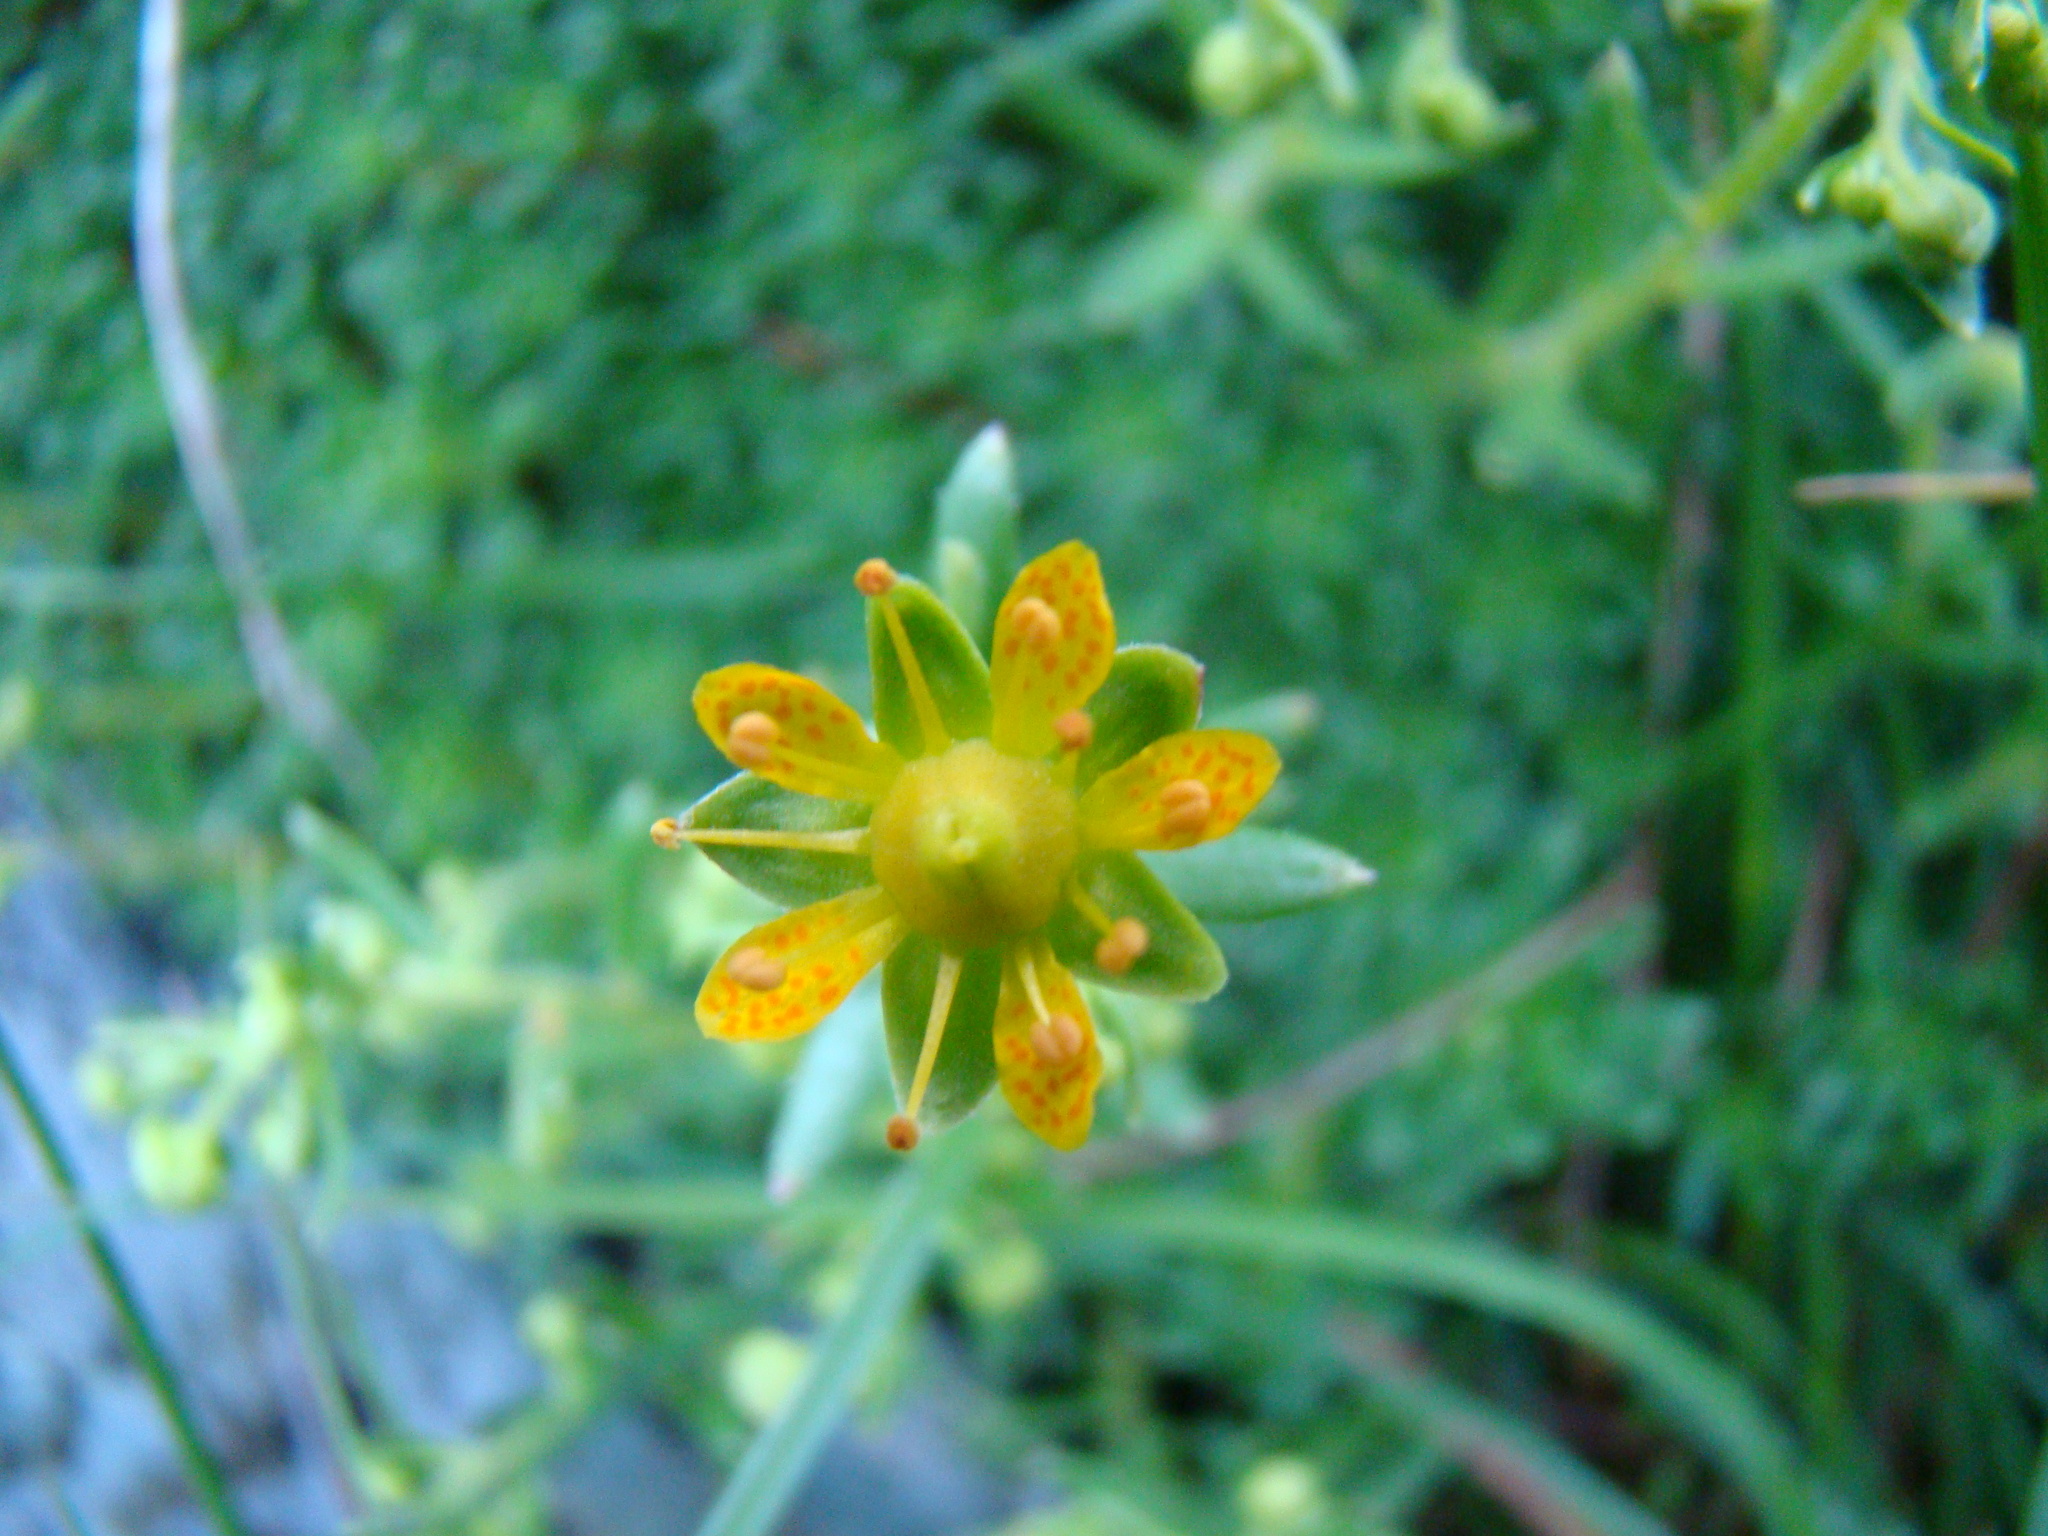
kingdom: Plantae
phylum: Tracheophyta
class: Magnoliopsida
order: Saxifragales
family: Saxifragaceae
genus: Saxifraga
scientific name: Saxifraga aizoides
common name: Yellow mountain saxifrage
